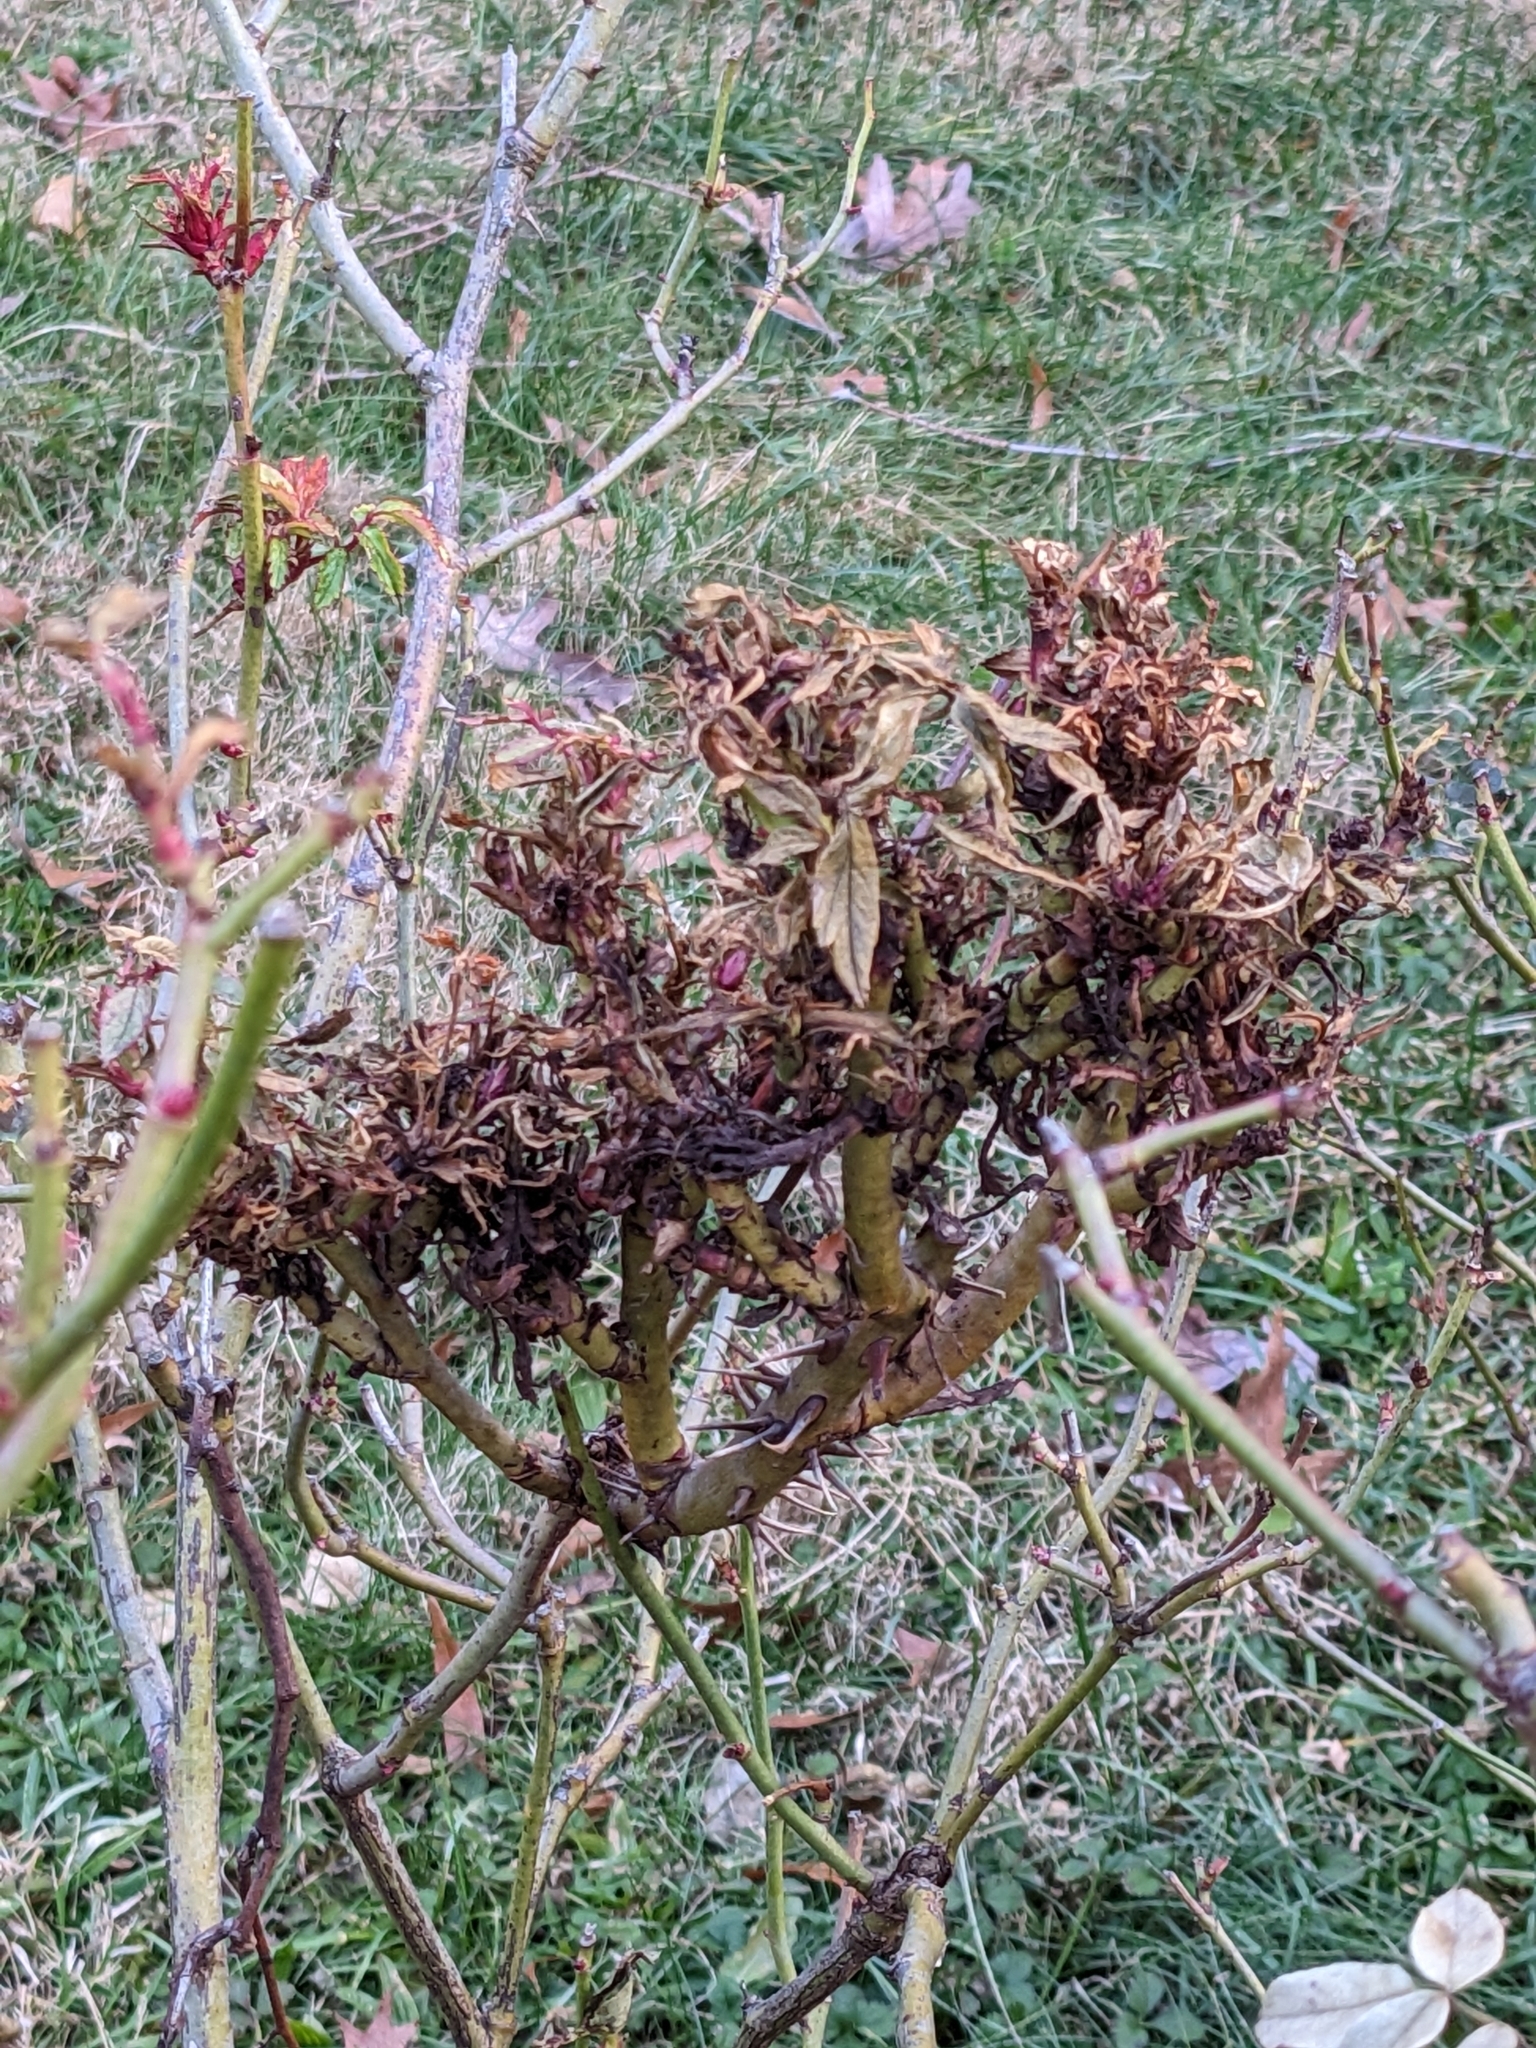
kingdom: Viruses
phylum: Negarnaviricota
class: Ellioviricetes
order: Bunyavirales
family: Fimoviridae
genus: Emaravirus
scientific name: Emaravirus rosae
